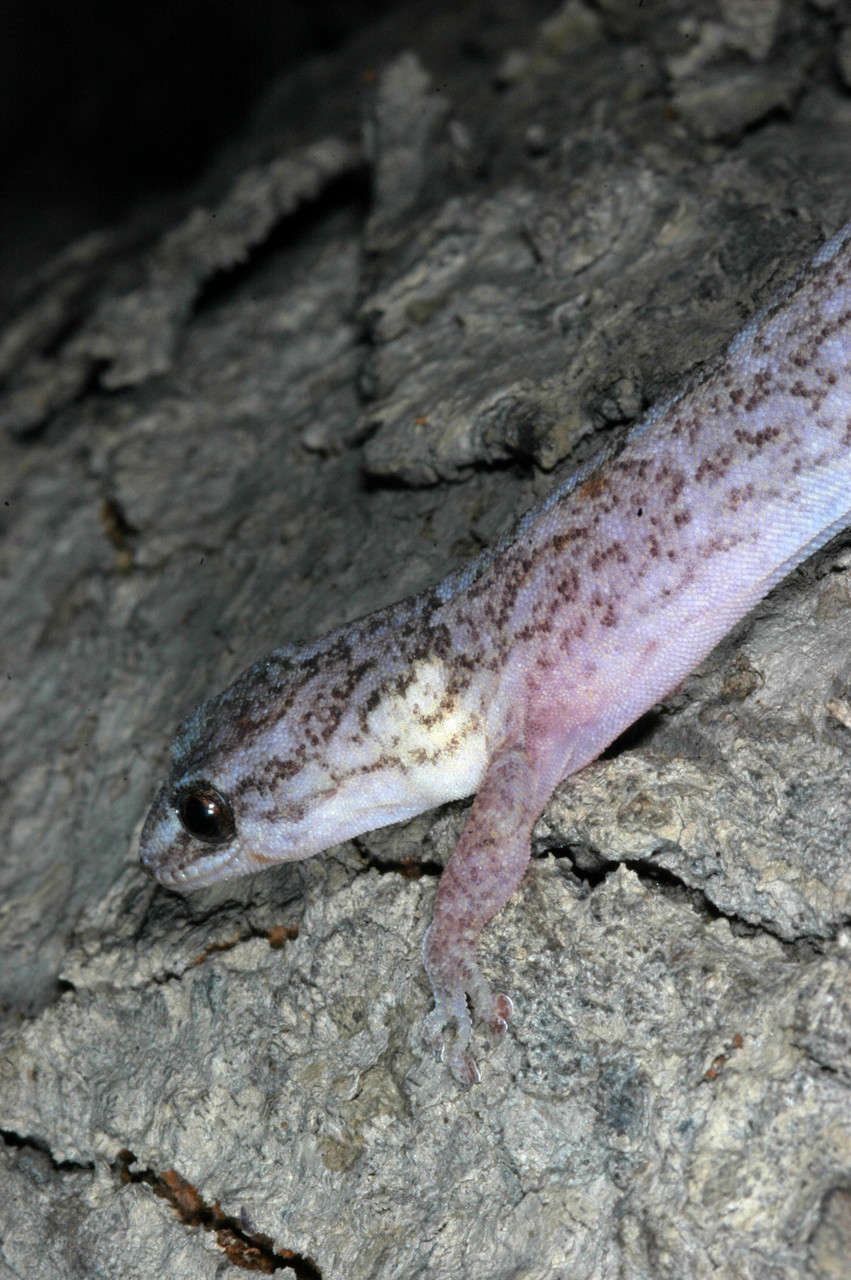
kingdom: Animalia
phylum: Chordata
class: Squamata
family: Gekkonidae
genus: Christinus
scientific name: Christinus marmoratus
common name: Marbled gecko
